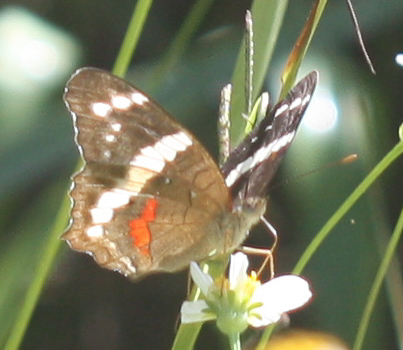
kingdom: Animalia
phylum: Arthropoda
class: Insecta
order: Lepidoptera
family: Nymphalidae
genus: Anartia
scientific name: Anartia fatima
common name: Banded peacock
